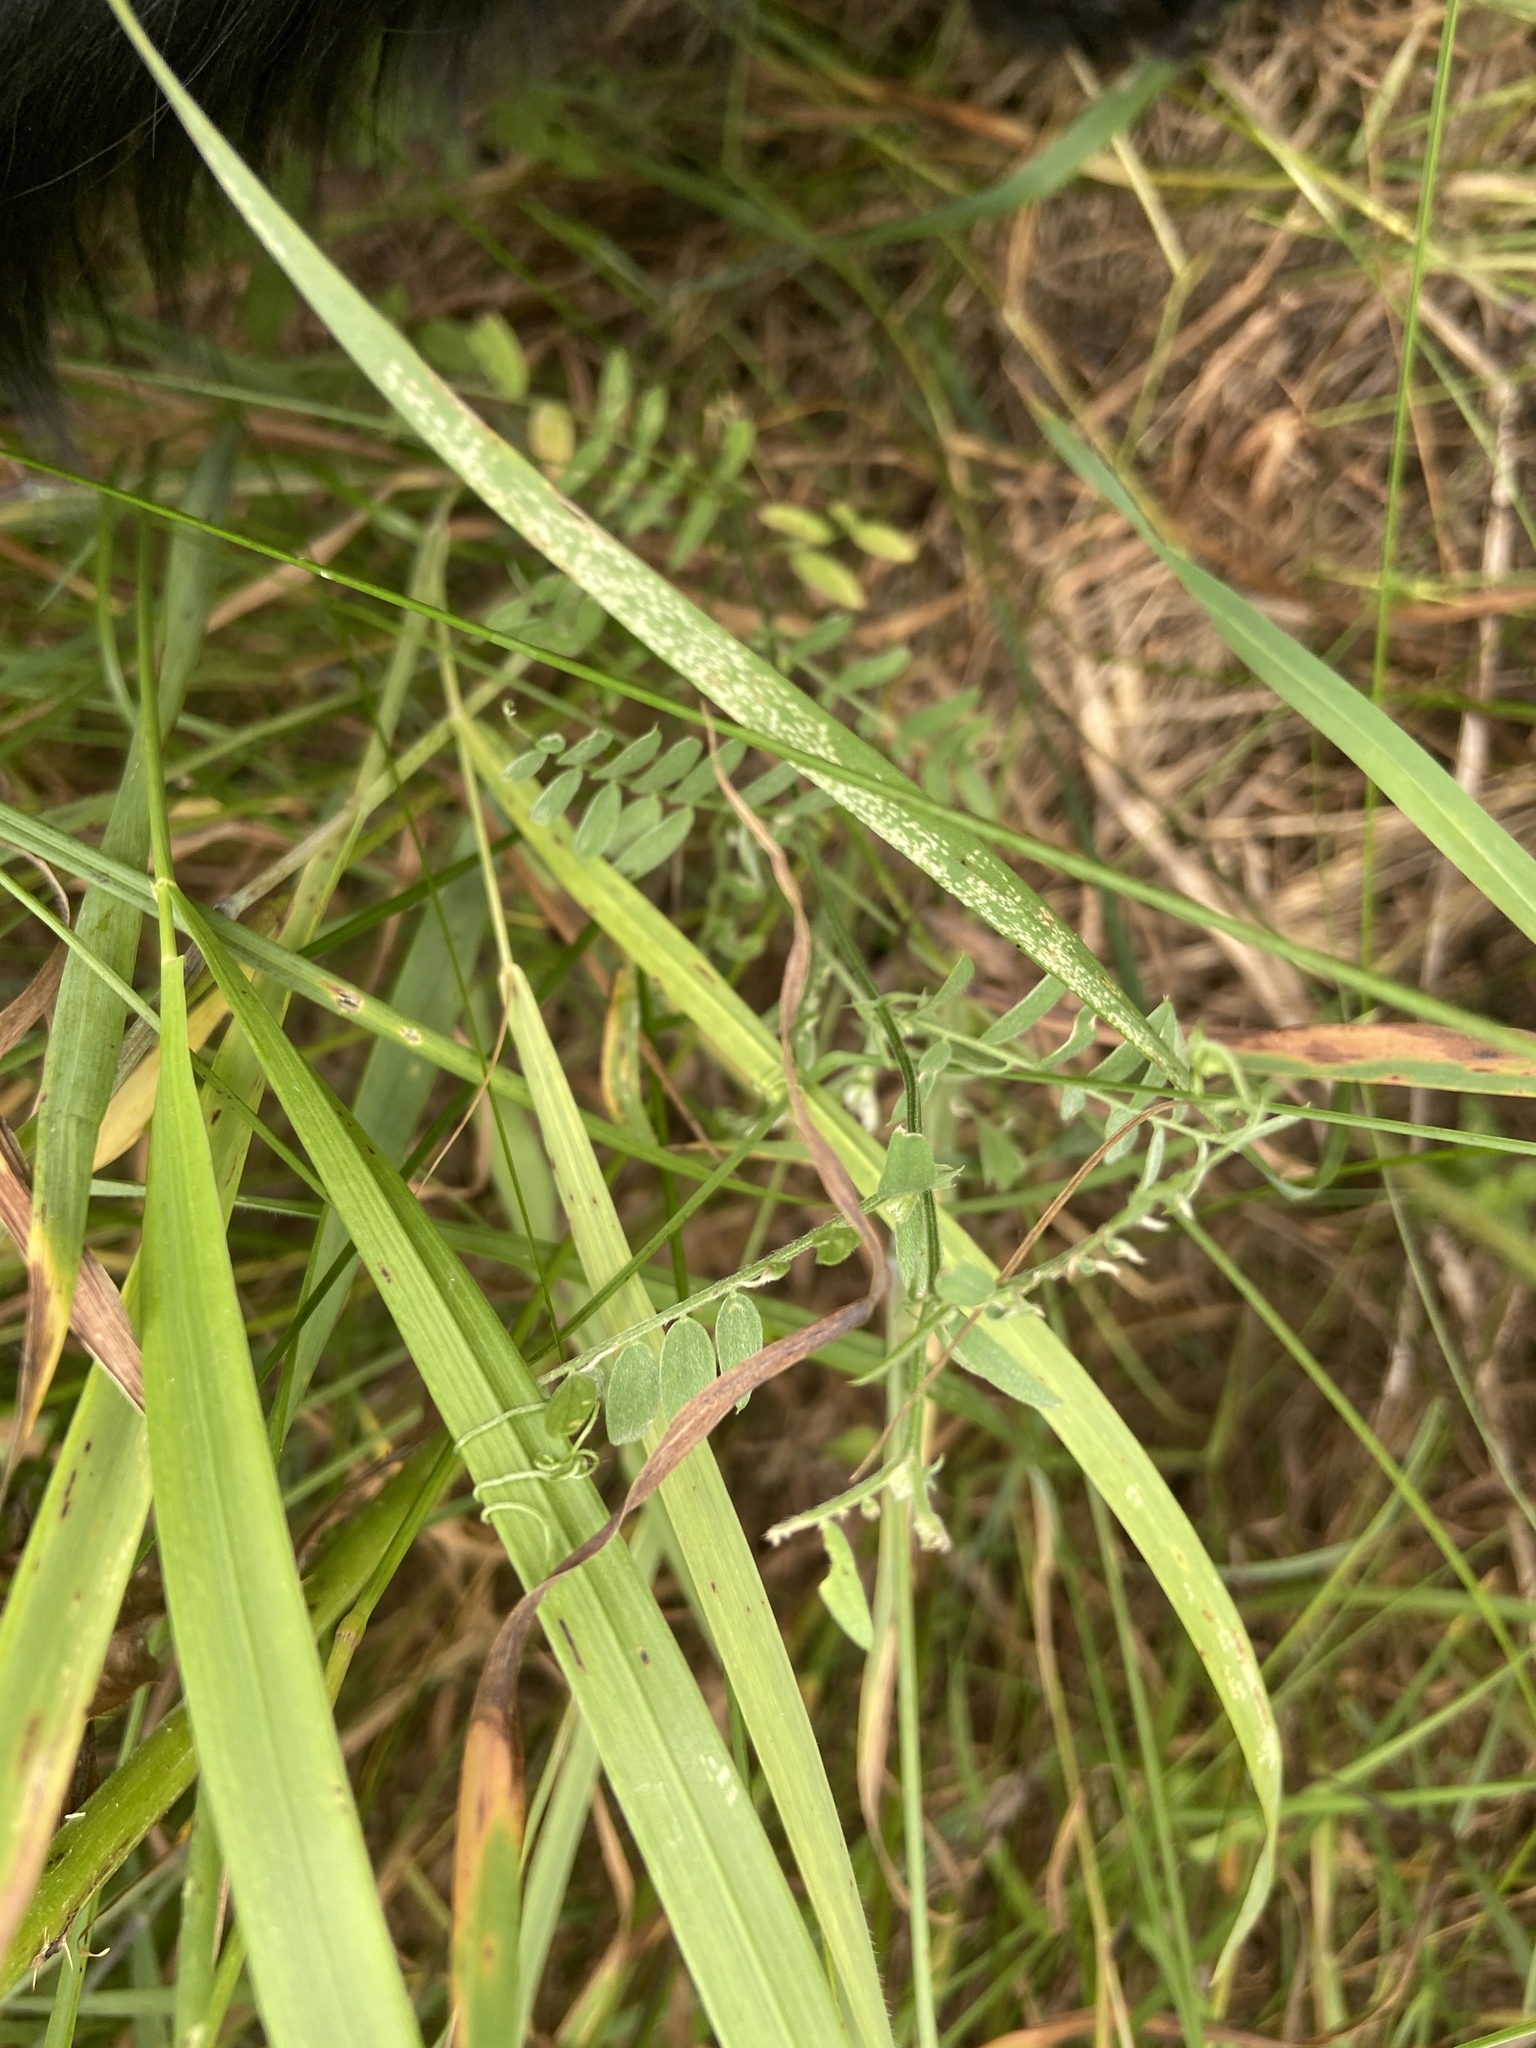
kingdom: Plantae
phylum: Tracheophyta
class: Magnoliopsida
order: Fabales
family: Fabaceae
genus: Vicia
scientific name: Vicia cracca
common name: Bird vetch
